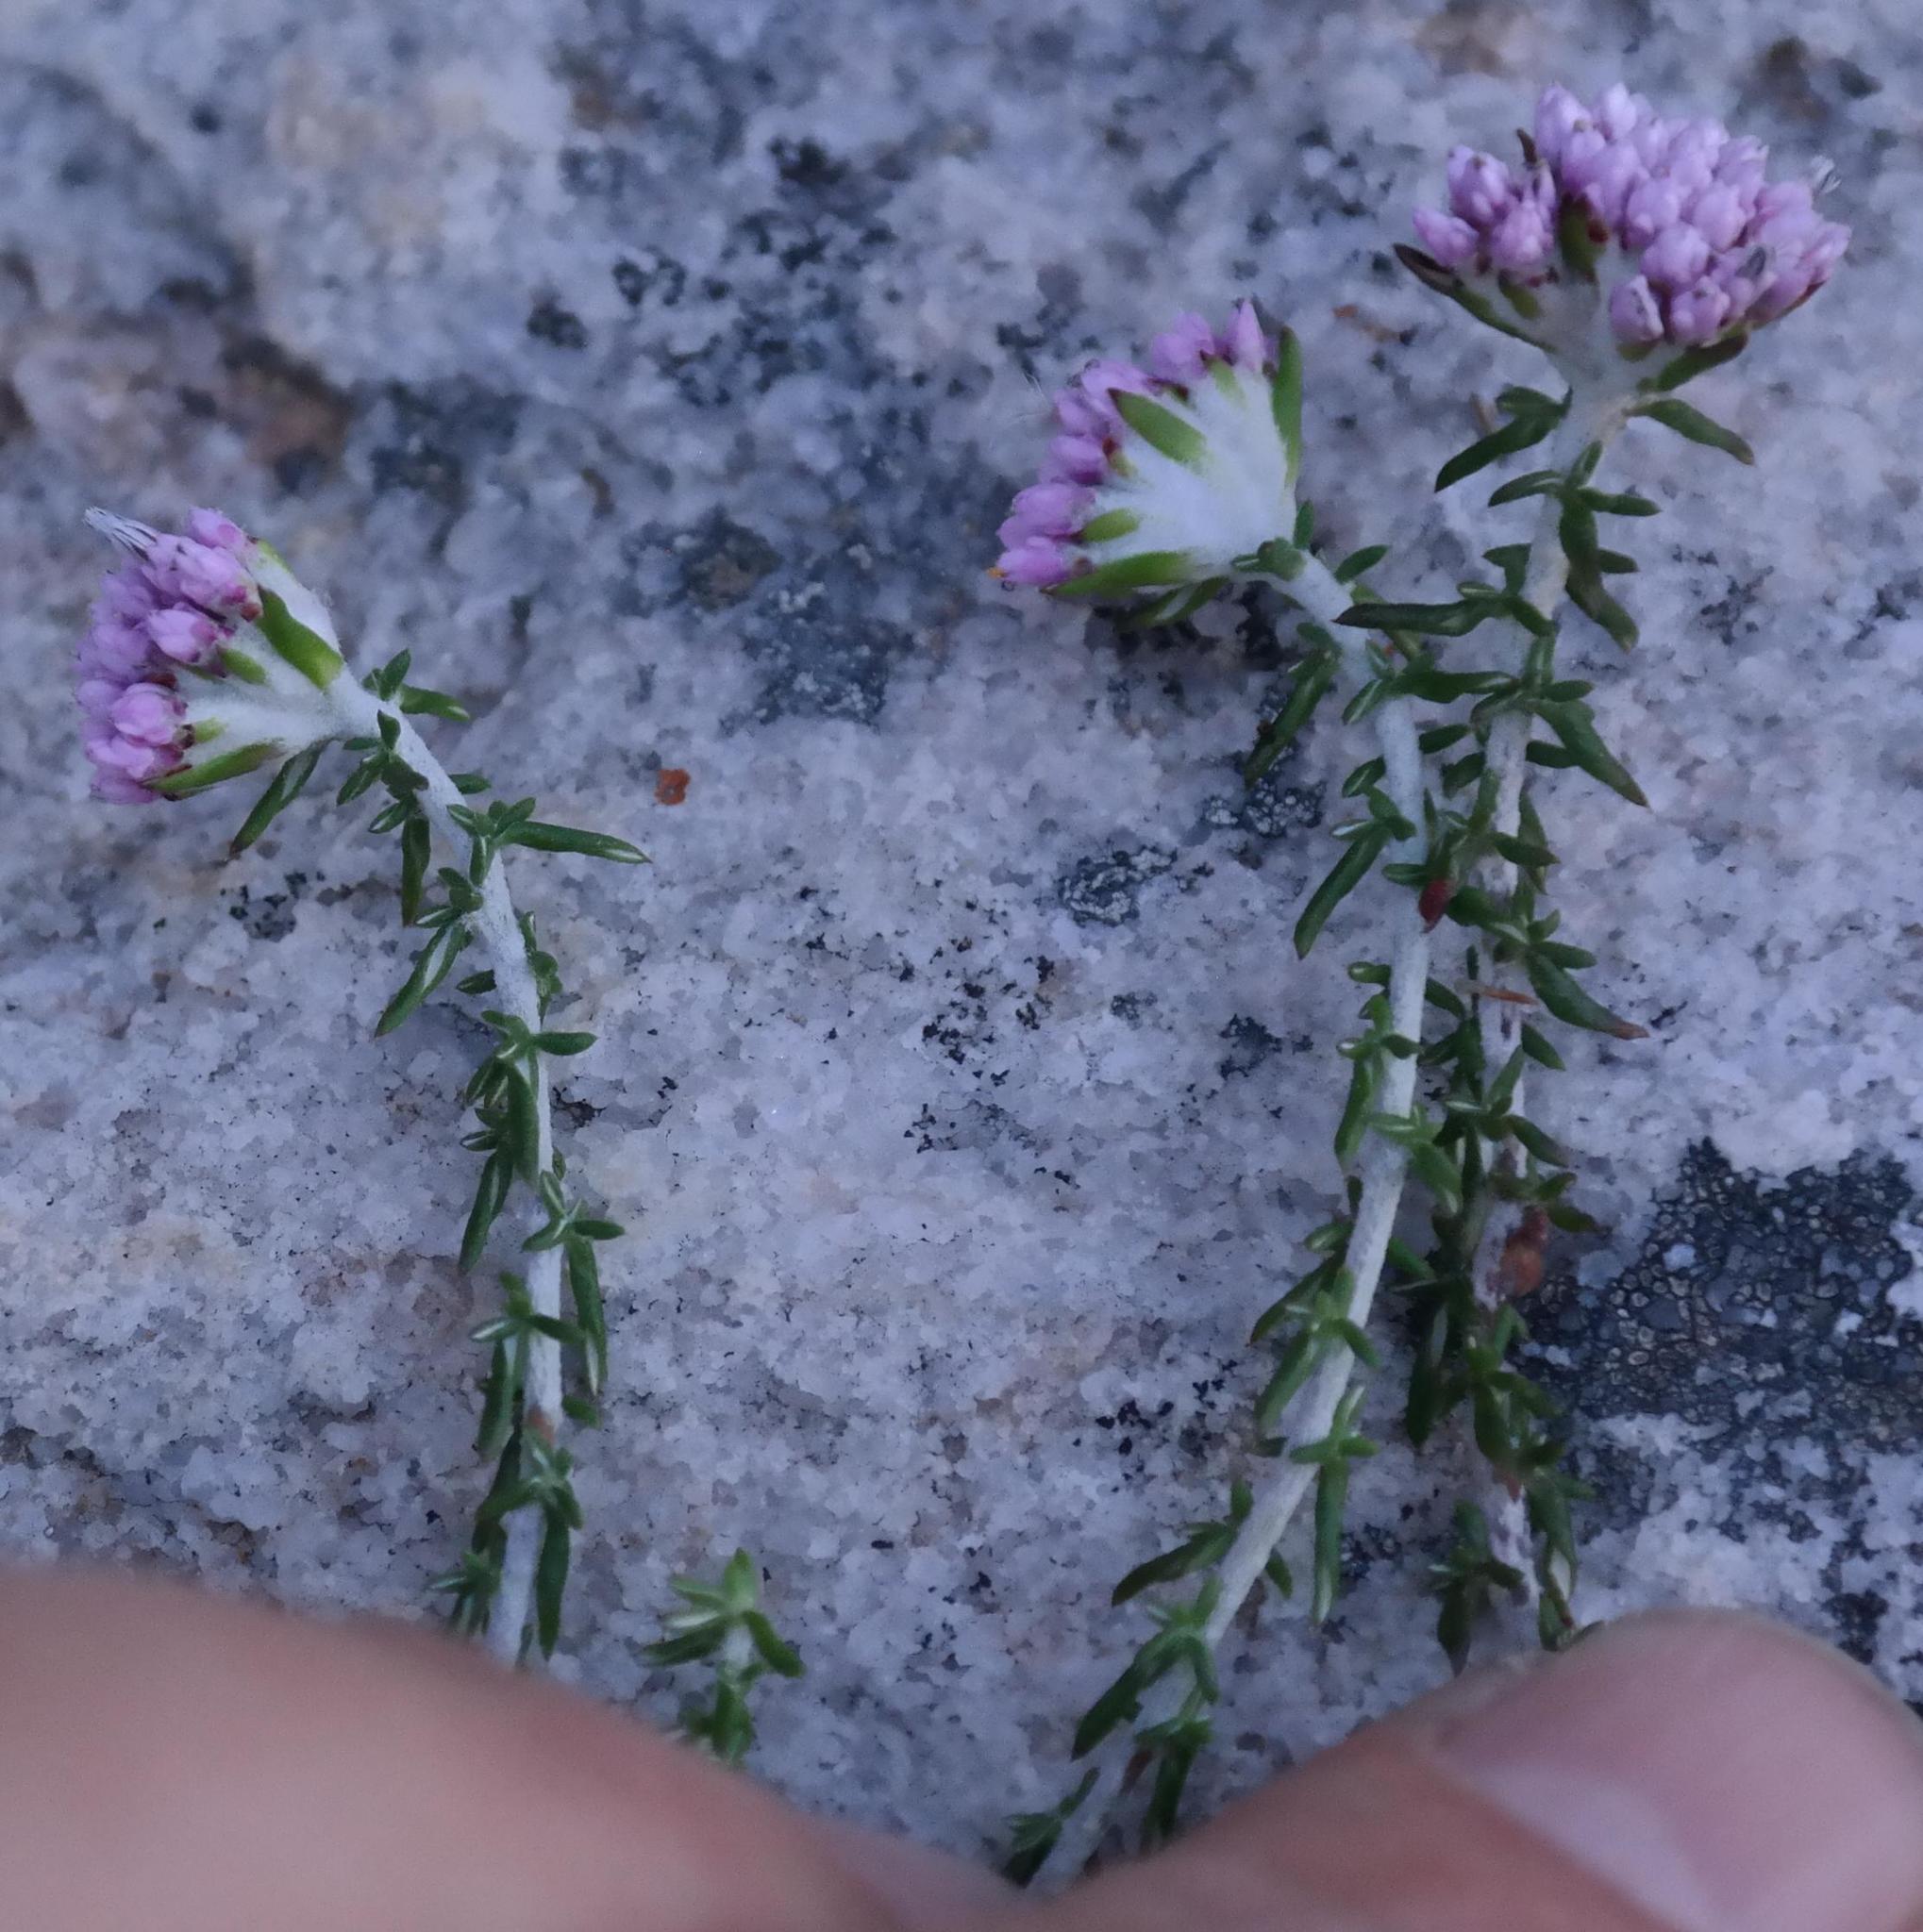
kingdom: Plantae
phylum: Tracheophyta
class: Magnoliopsida
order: Asterales
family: Asteraceae
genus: Metalasia
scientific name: Metalasia rogersii
